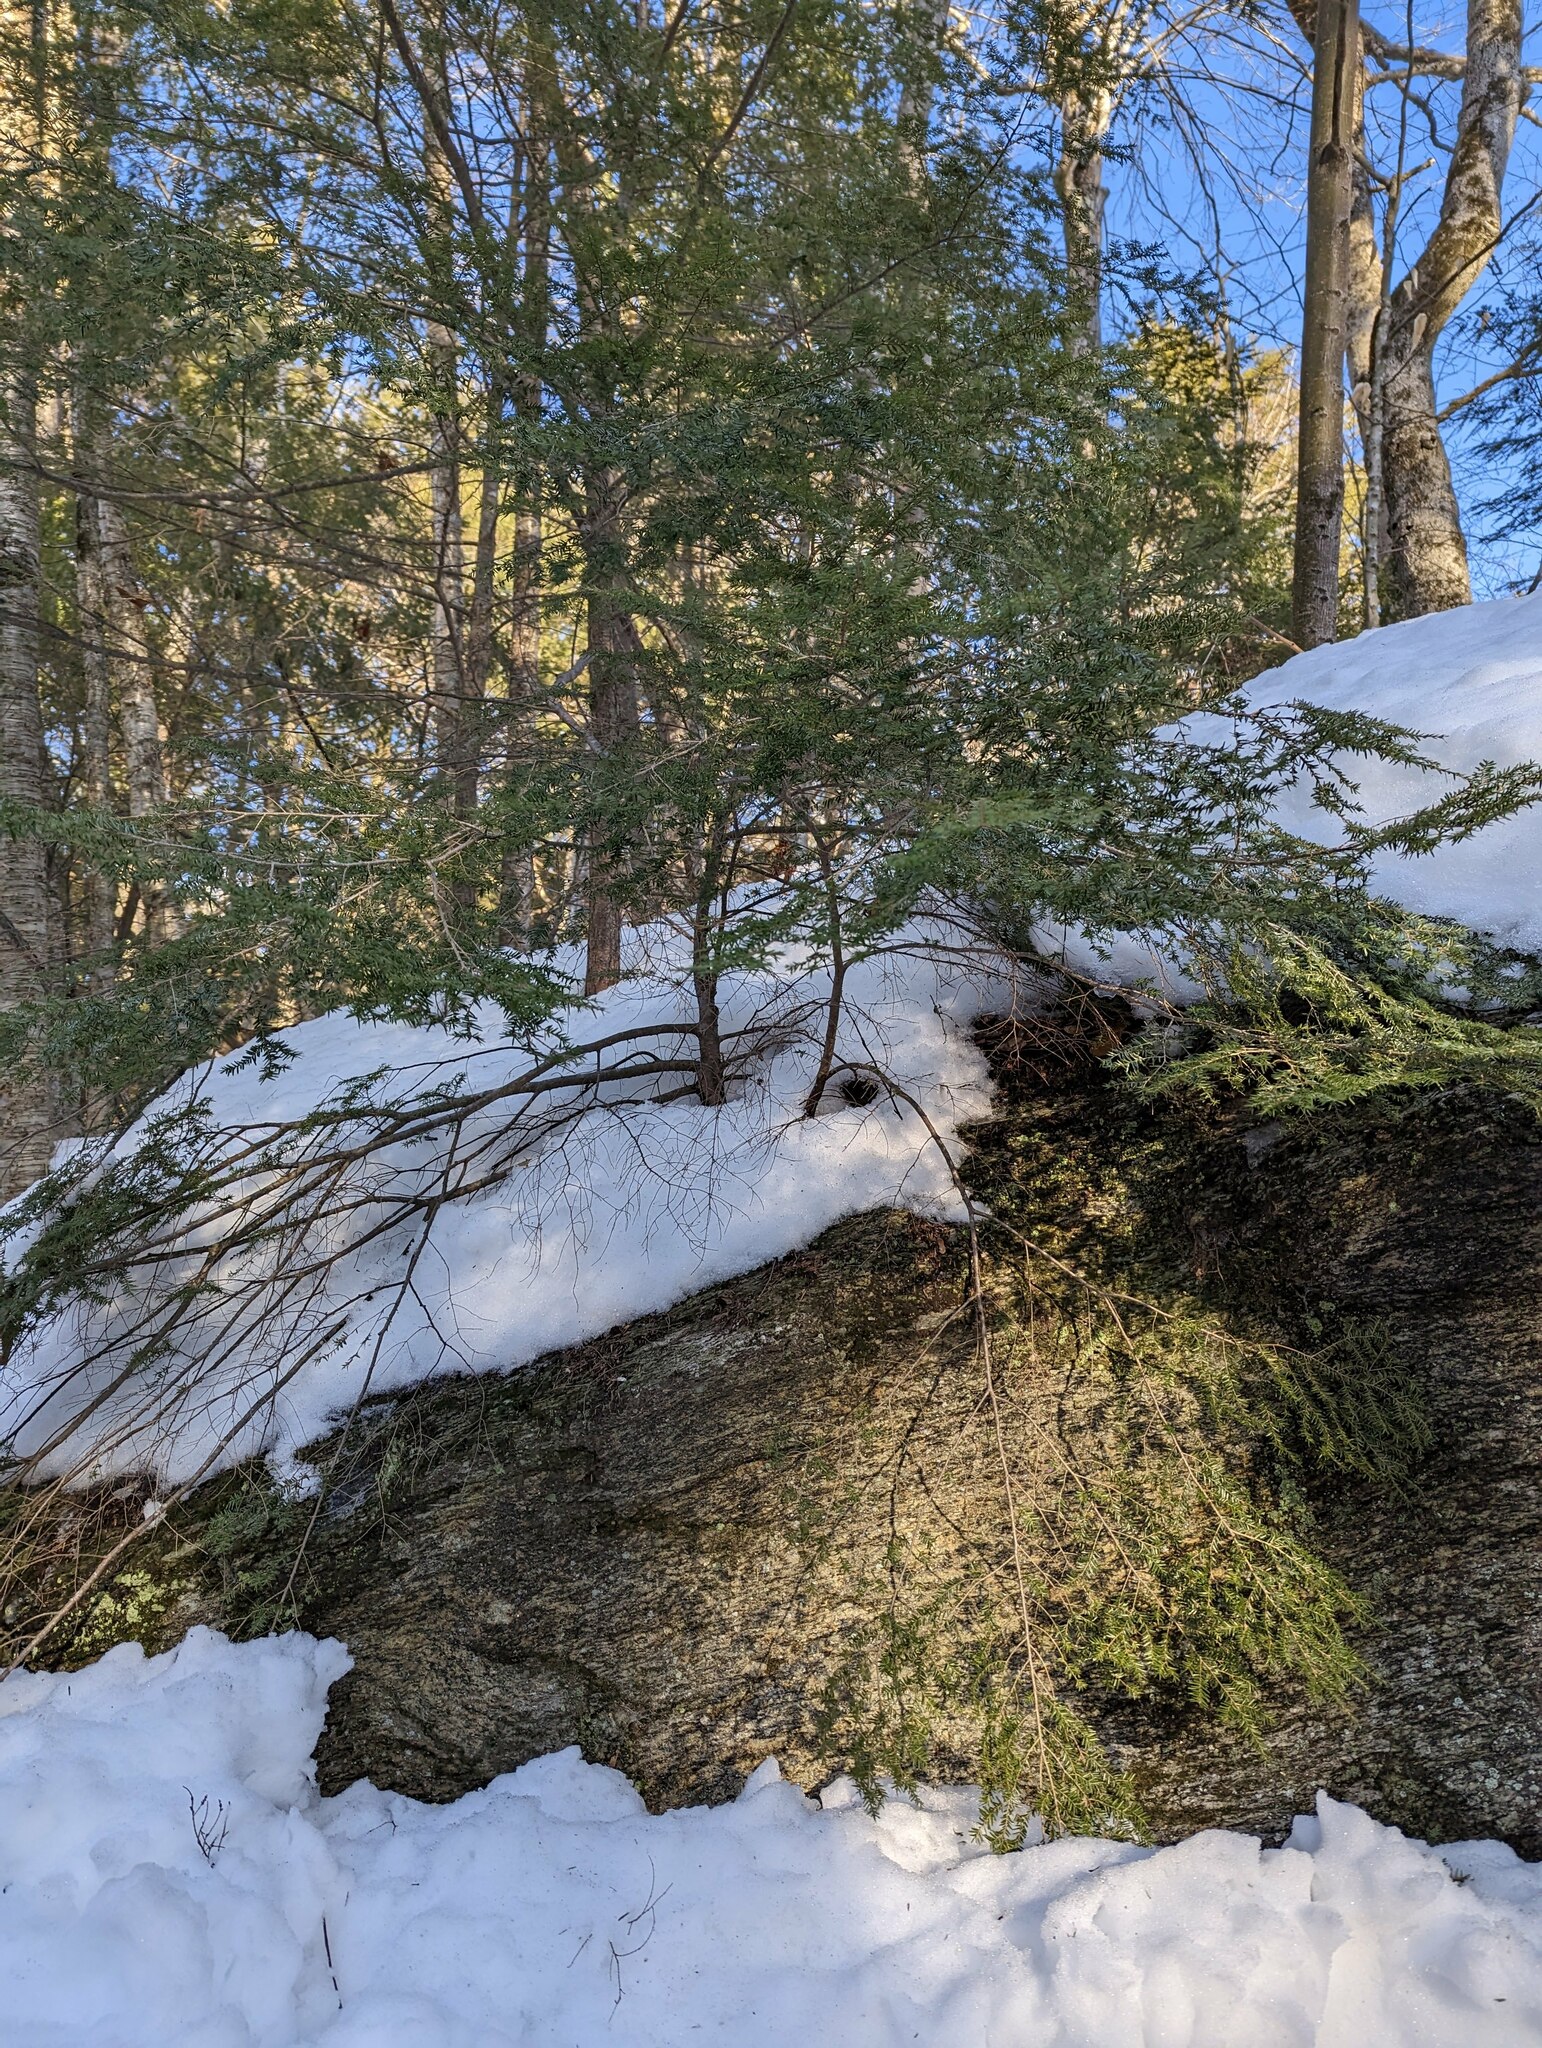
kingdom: Plantae
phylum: Tracheophyta
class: Pinopsida
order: Pinales
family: Pinaceae
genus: Tsuga
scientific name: Tsuga canadensis
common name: Eastern hemlock
